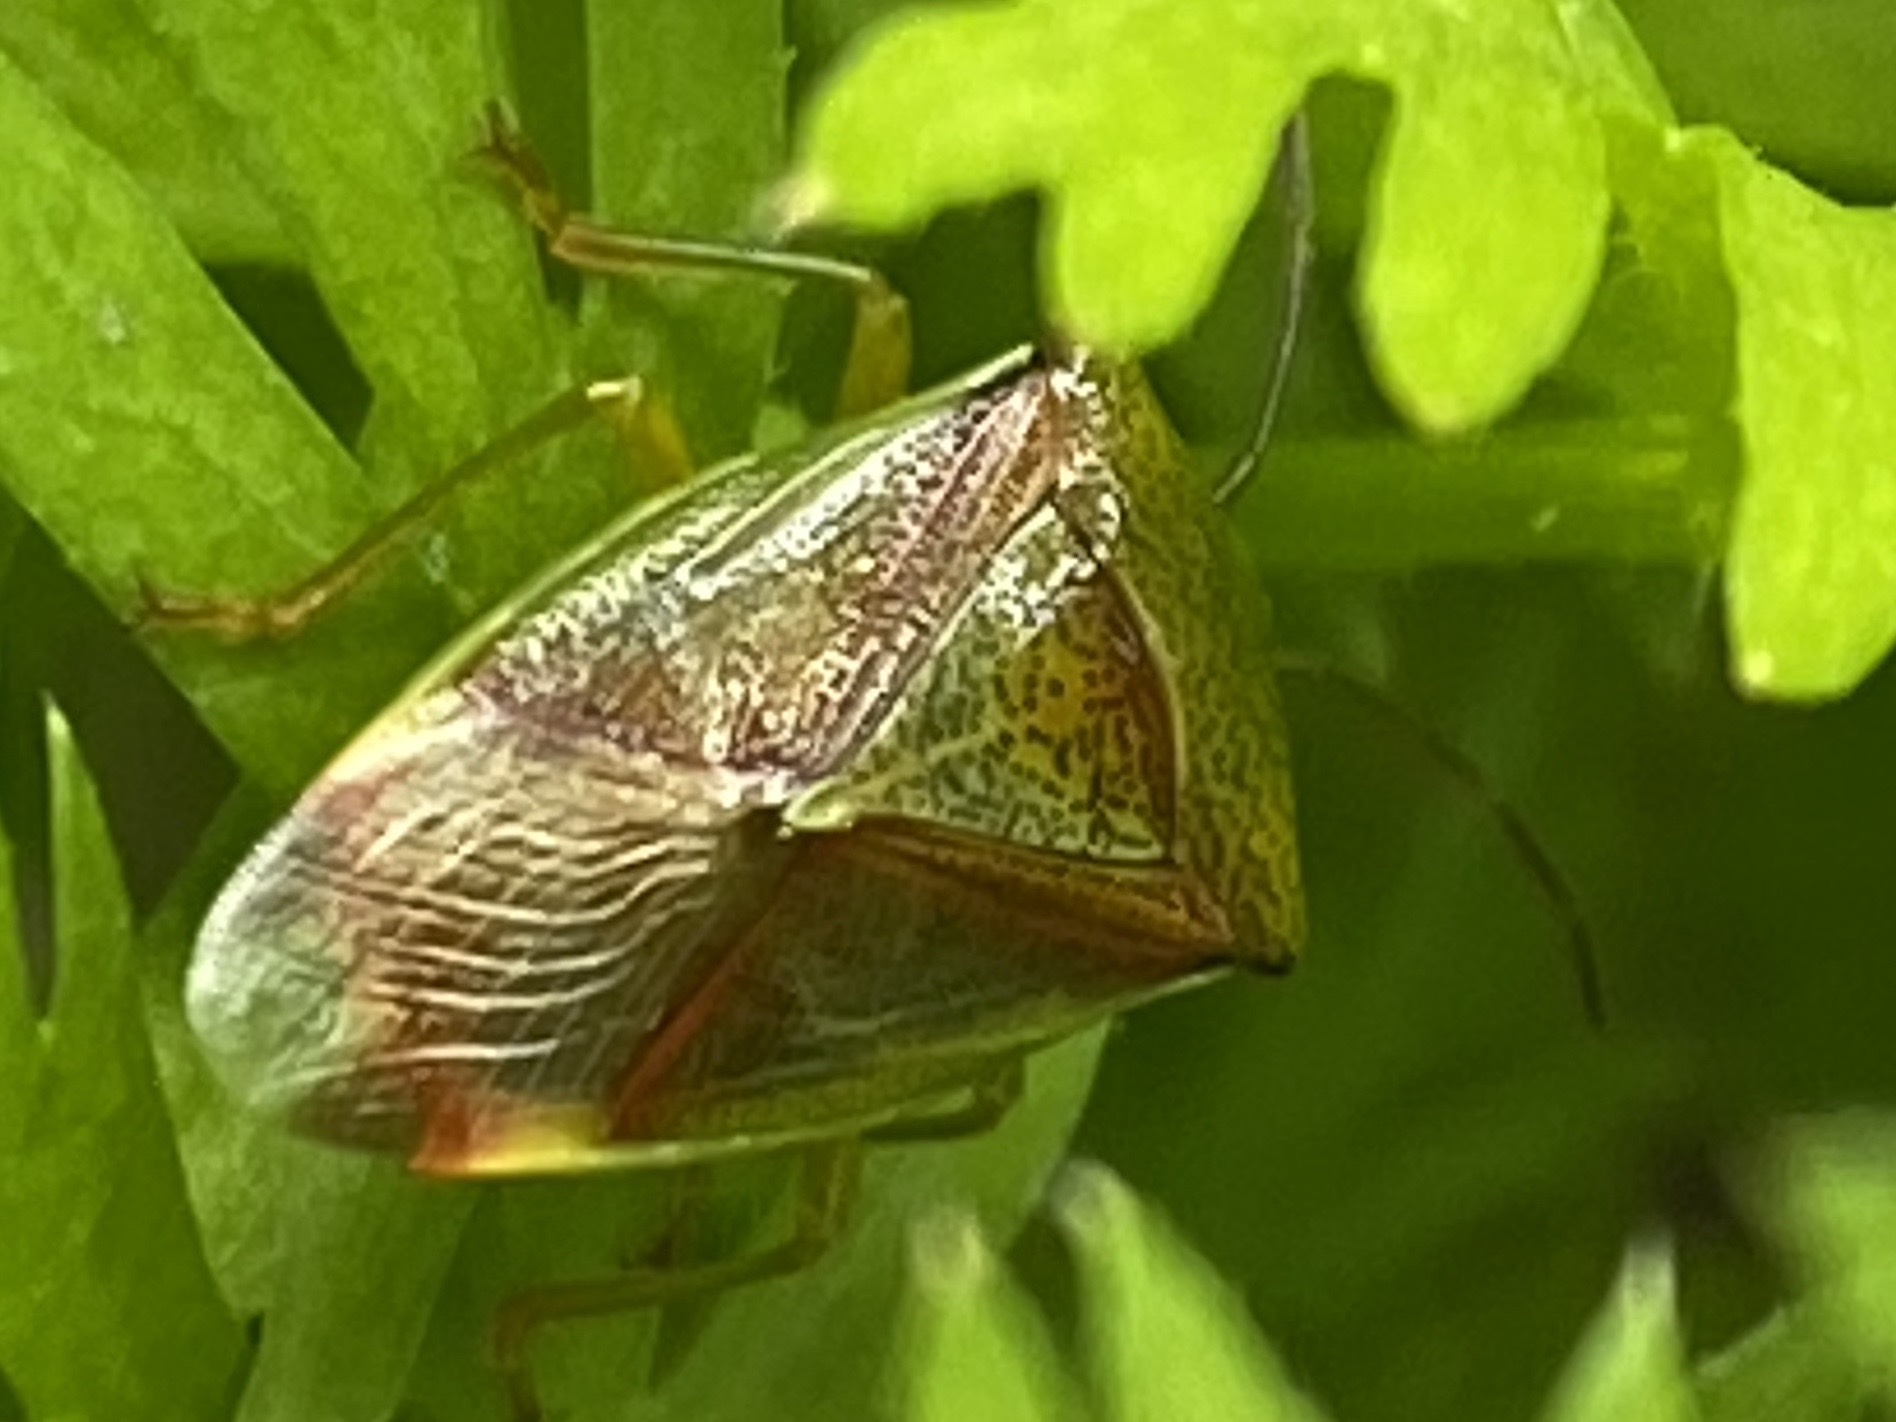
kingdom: Animalia
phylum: Arthropoda
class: Insecta
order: Hemiptera
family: Acanthosomatidae
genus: Elasmostethus
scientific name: Elasmostethus interstinctus
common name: Birch shieldbug
